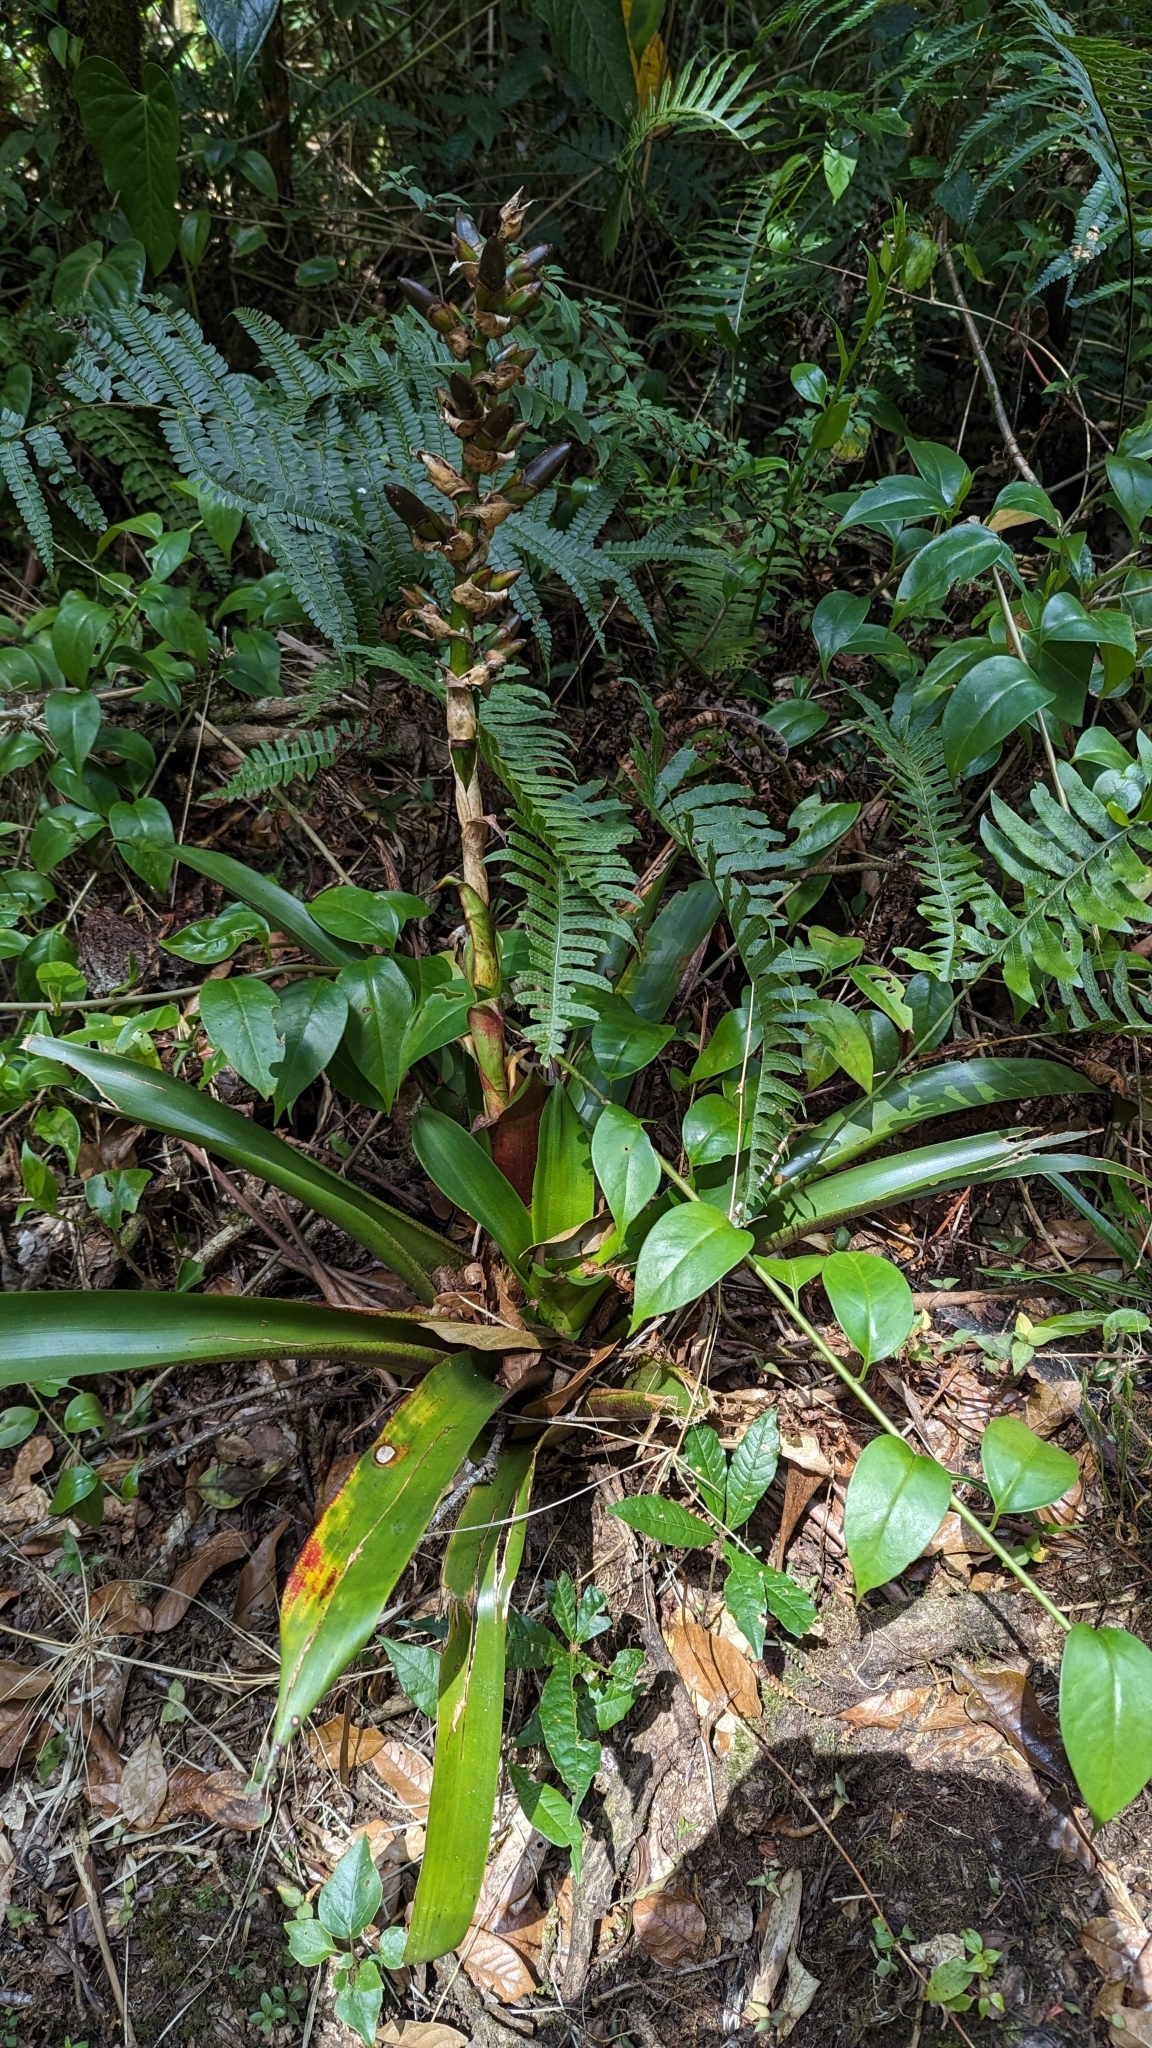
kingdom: Plantae
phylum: Tracheophyta
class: Liliopsida
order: Poales
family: Bromeliaceae
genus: Werauhia
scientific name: Werauhia ororiensis
